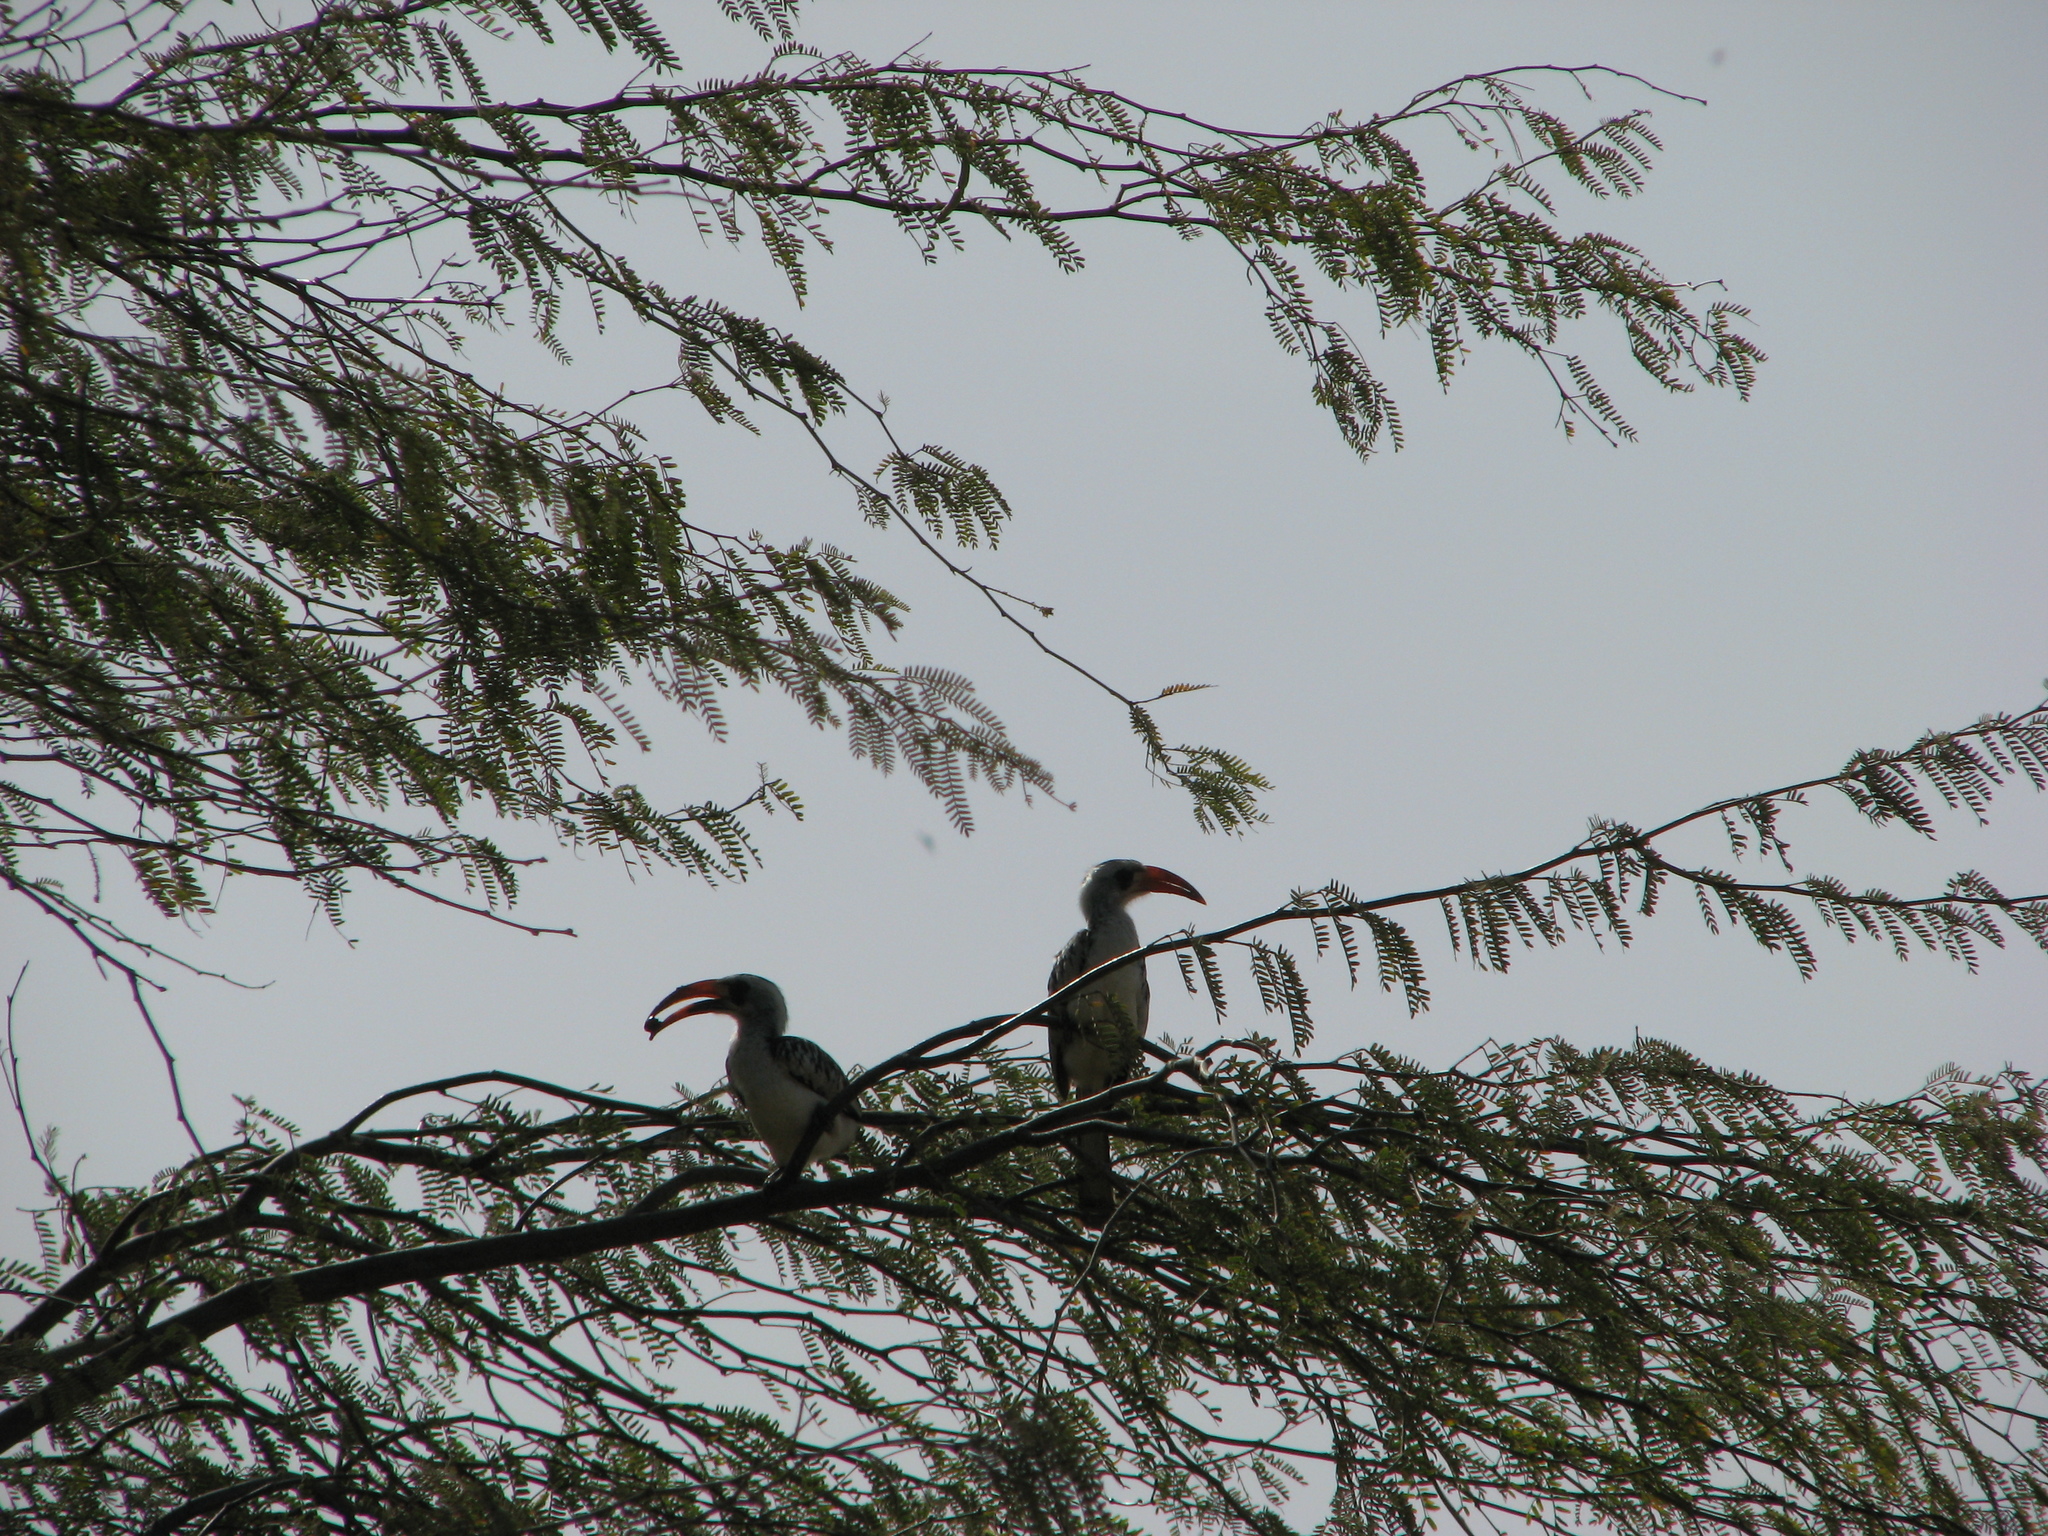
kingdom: Animalia
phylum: Chordata
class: Aves
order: Bucerotiformes
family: Bucerotidae
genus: Tockus
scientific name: Tockus kempi
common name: Western red-billed hornbill
